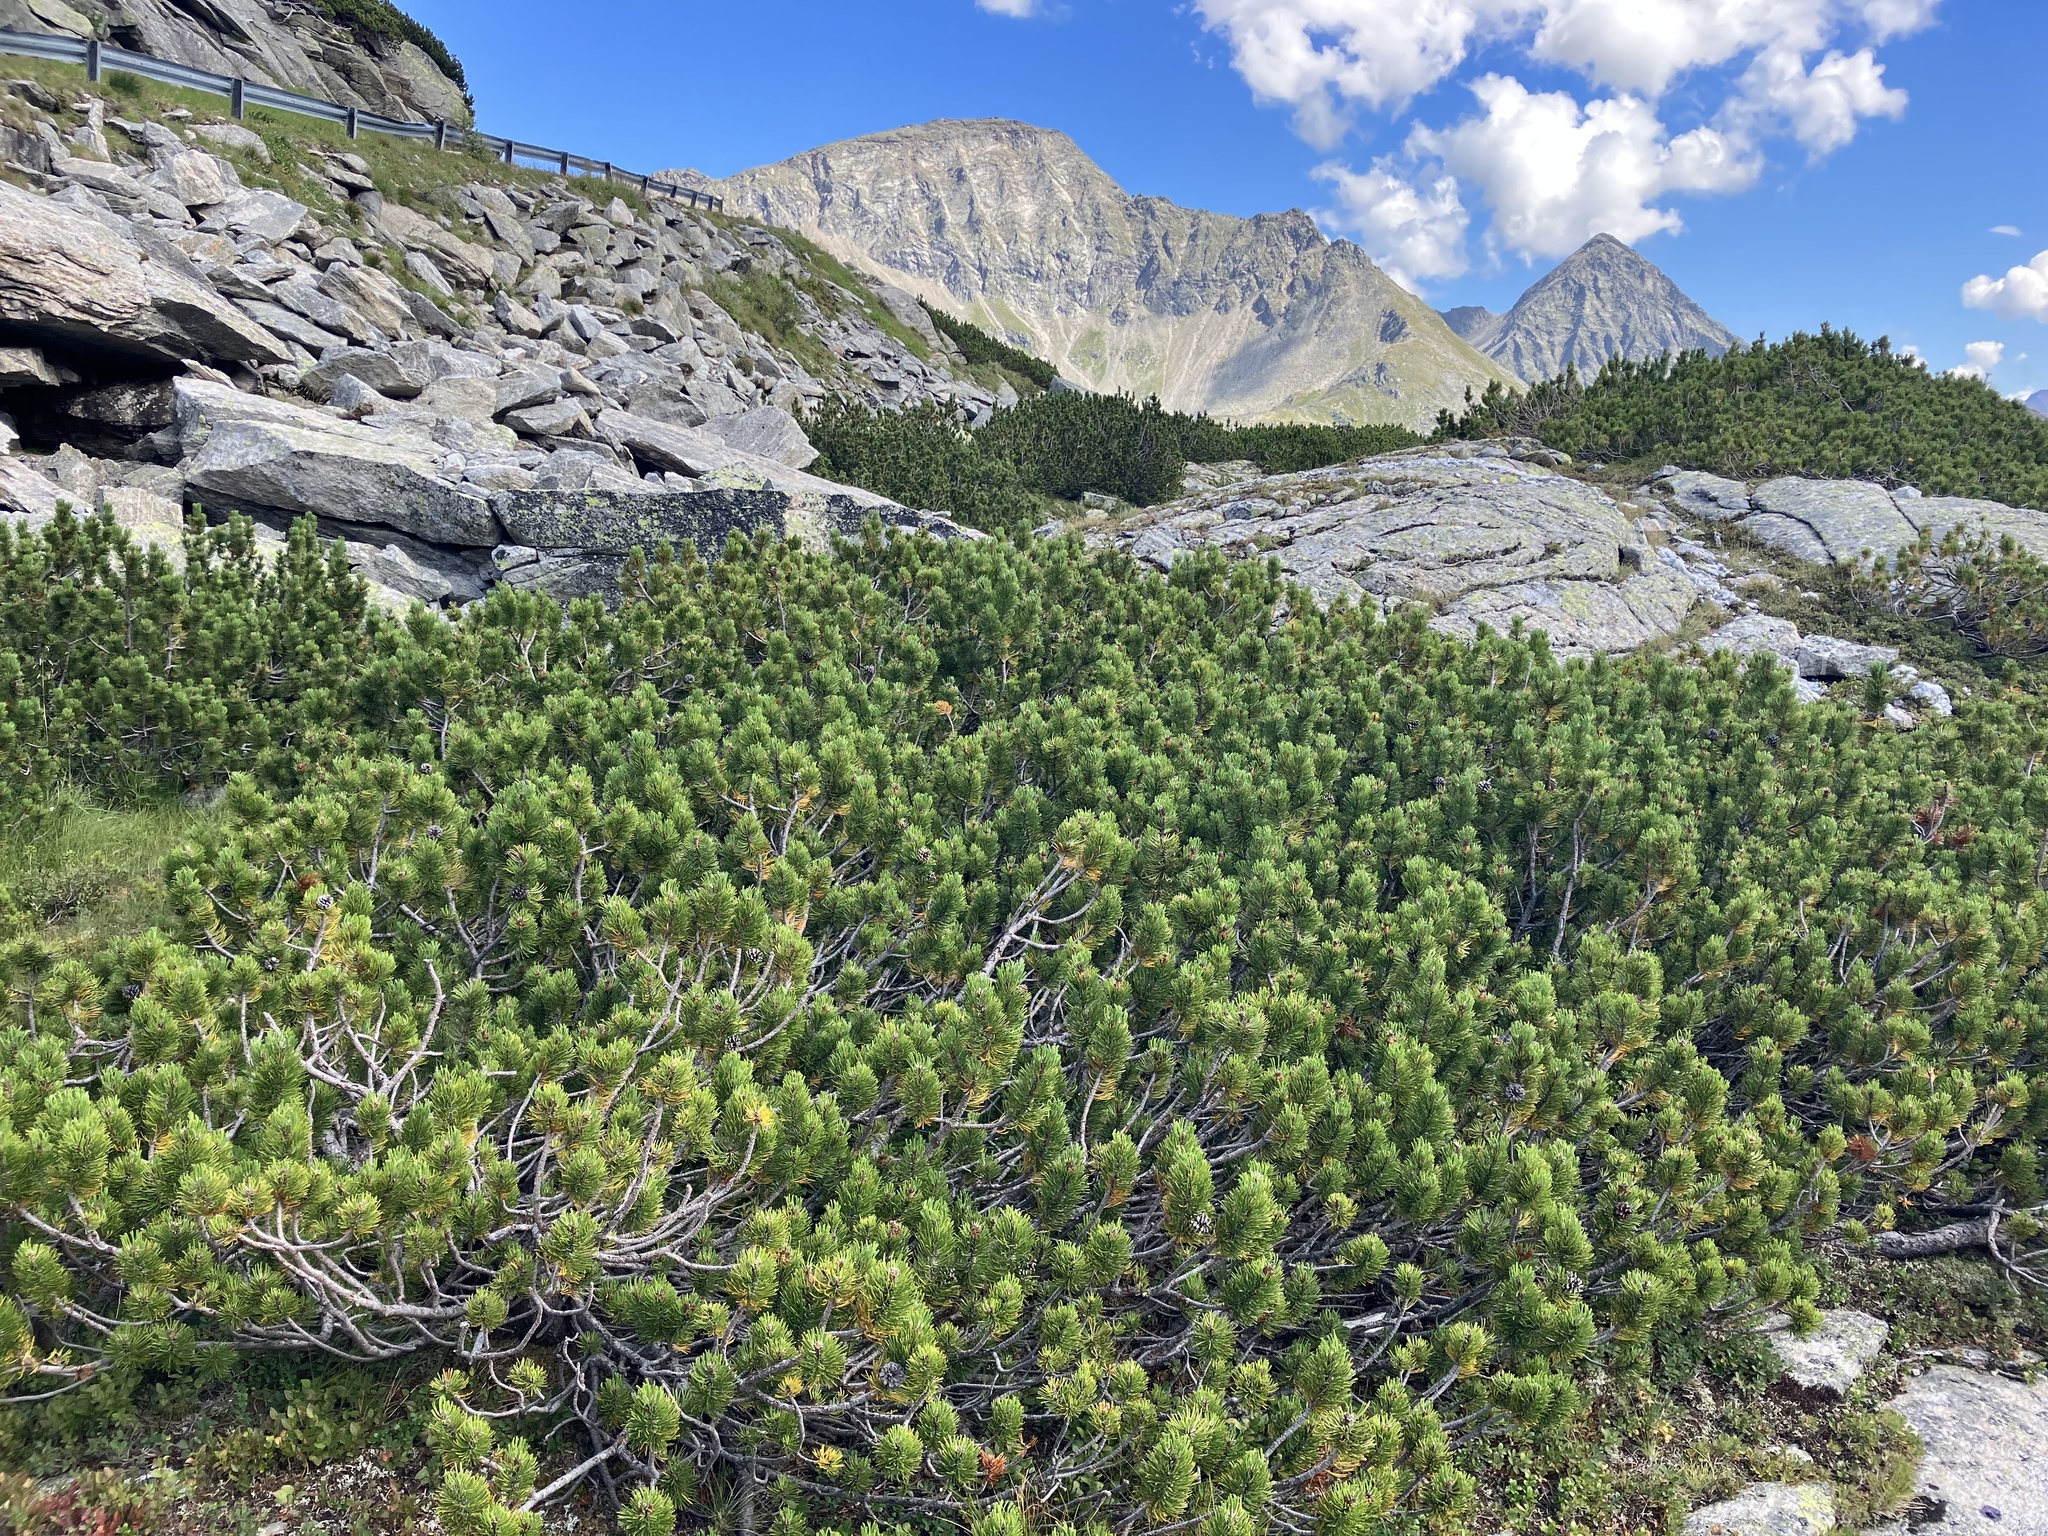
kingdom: Plantae
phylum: Tracheophyta
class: Pinopsida
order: Pinales
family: Pinaceae
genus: Pinus
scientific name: Pinus mugo
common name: Mugo pine
